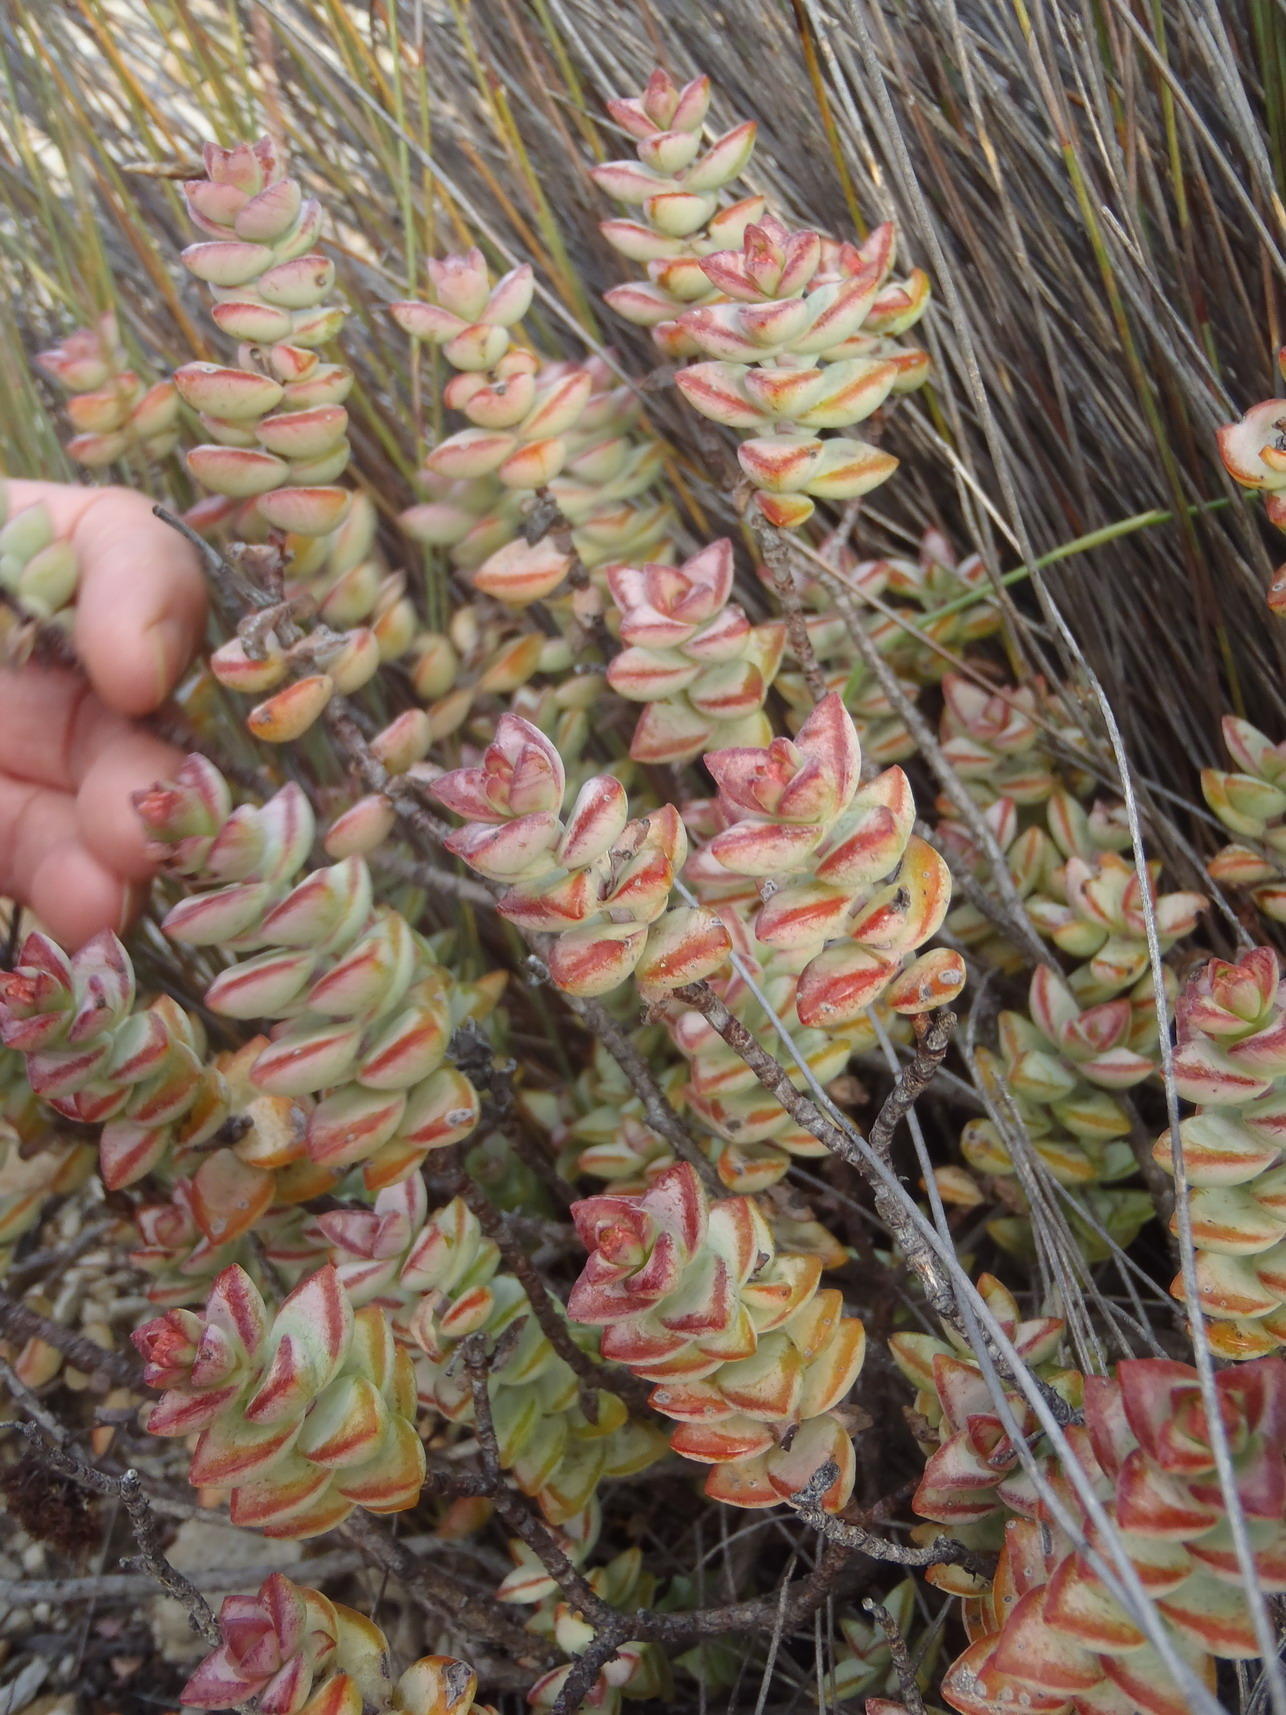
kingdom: Plantae
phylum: Tracheophyta
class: Magnoliopsida
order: Saxifragales
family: Crassulaceae
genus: Crassula
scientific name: Crassula rupestris
